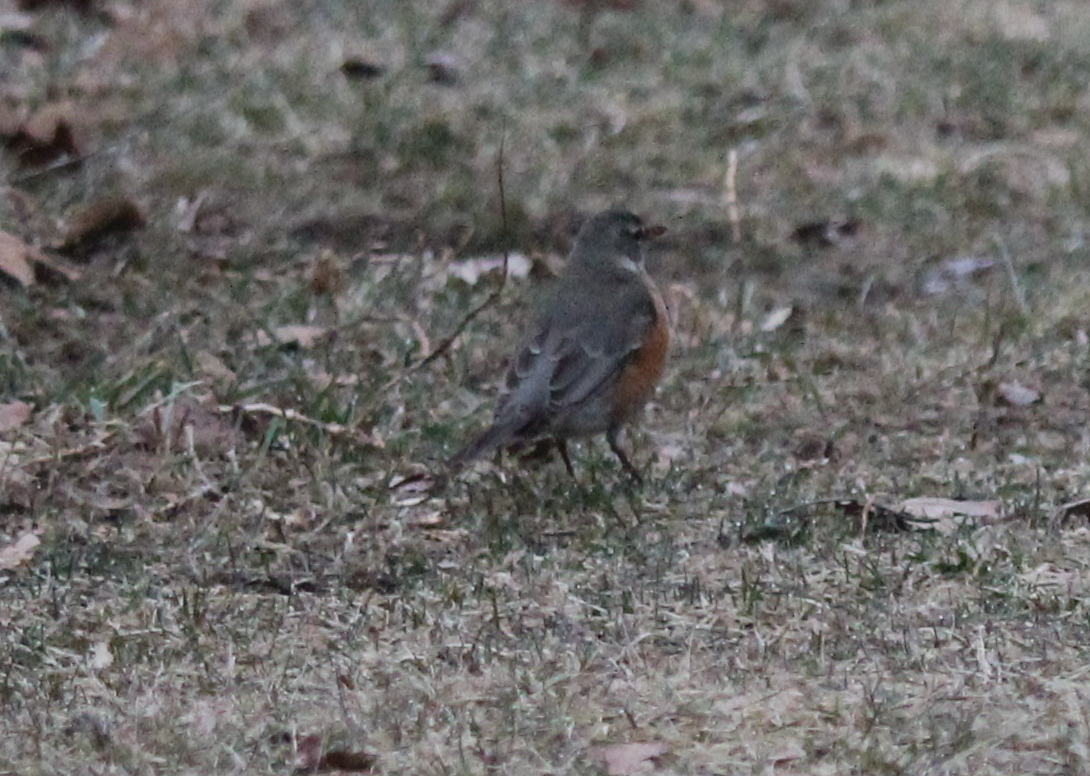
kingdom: Animalia
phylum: Chordata
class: Aves
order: Passeriformes
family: Turdidae
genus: Turdus
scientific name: Turdus migratorius
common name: American robin
